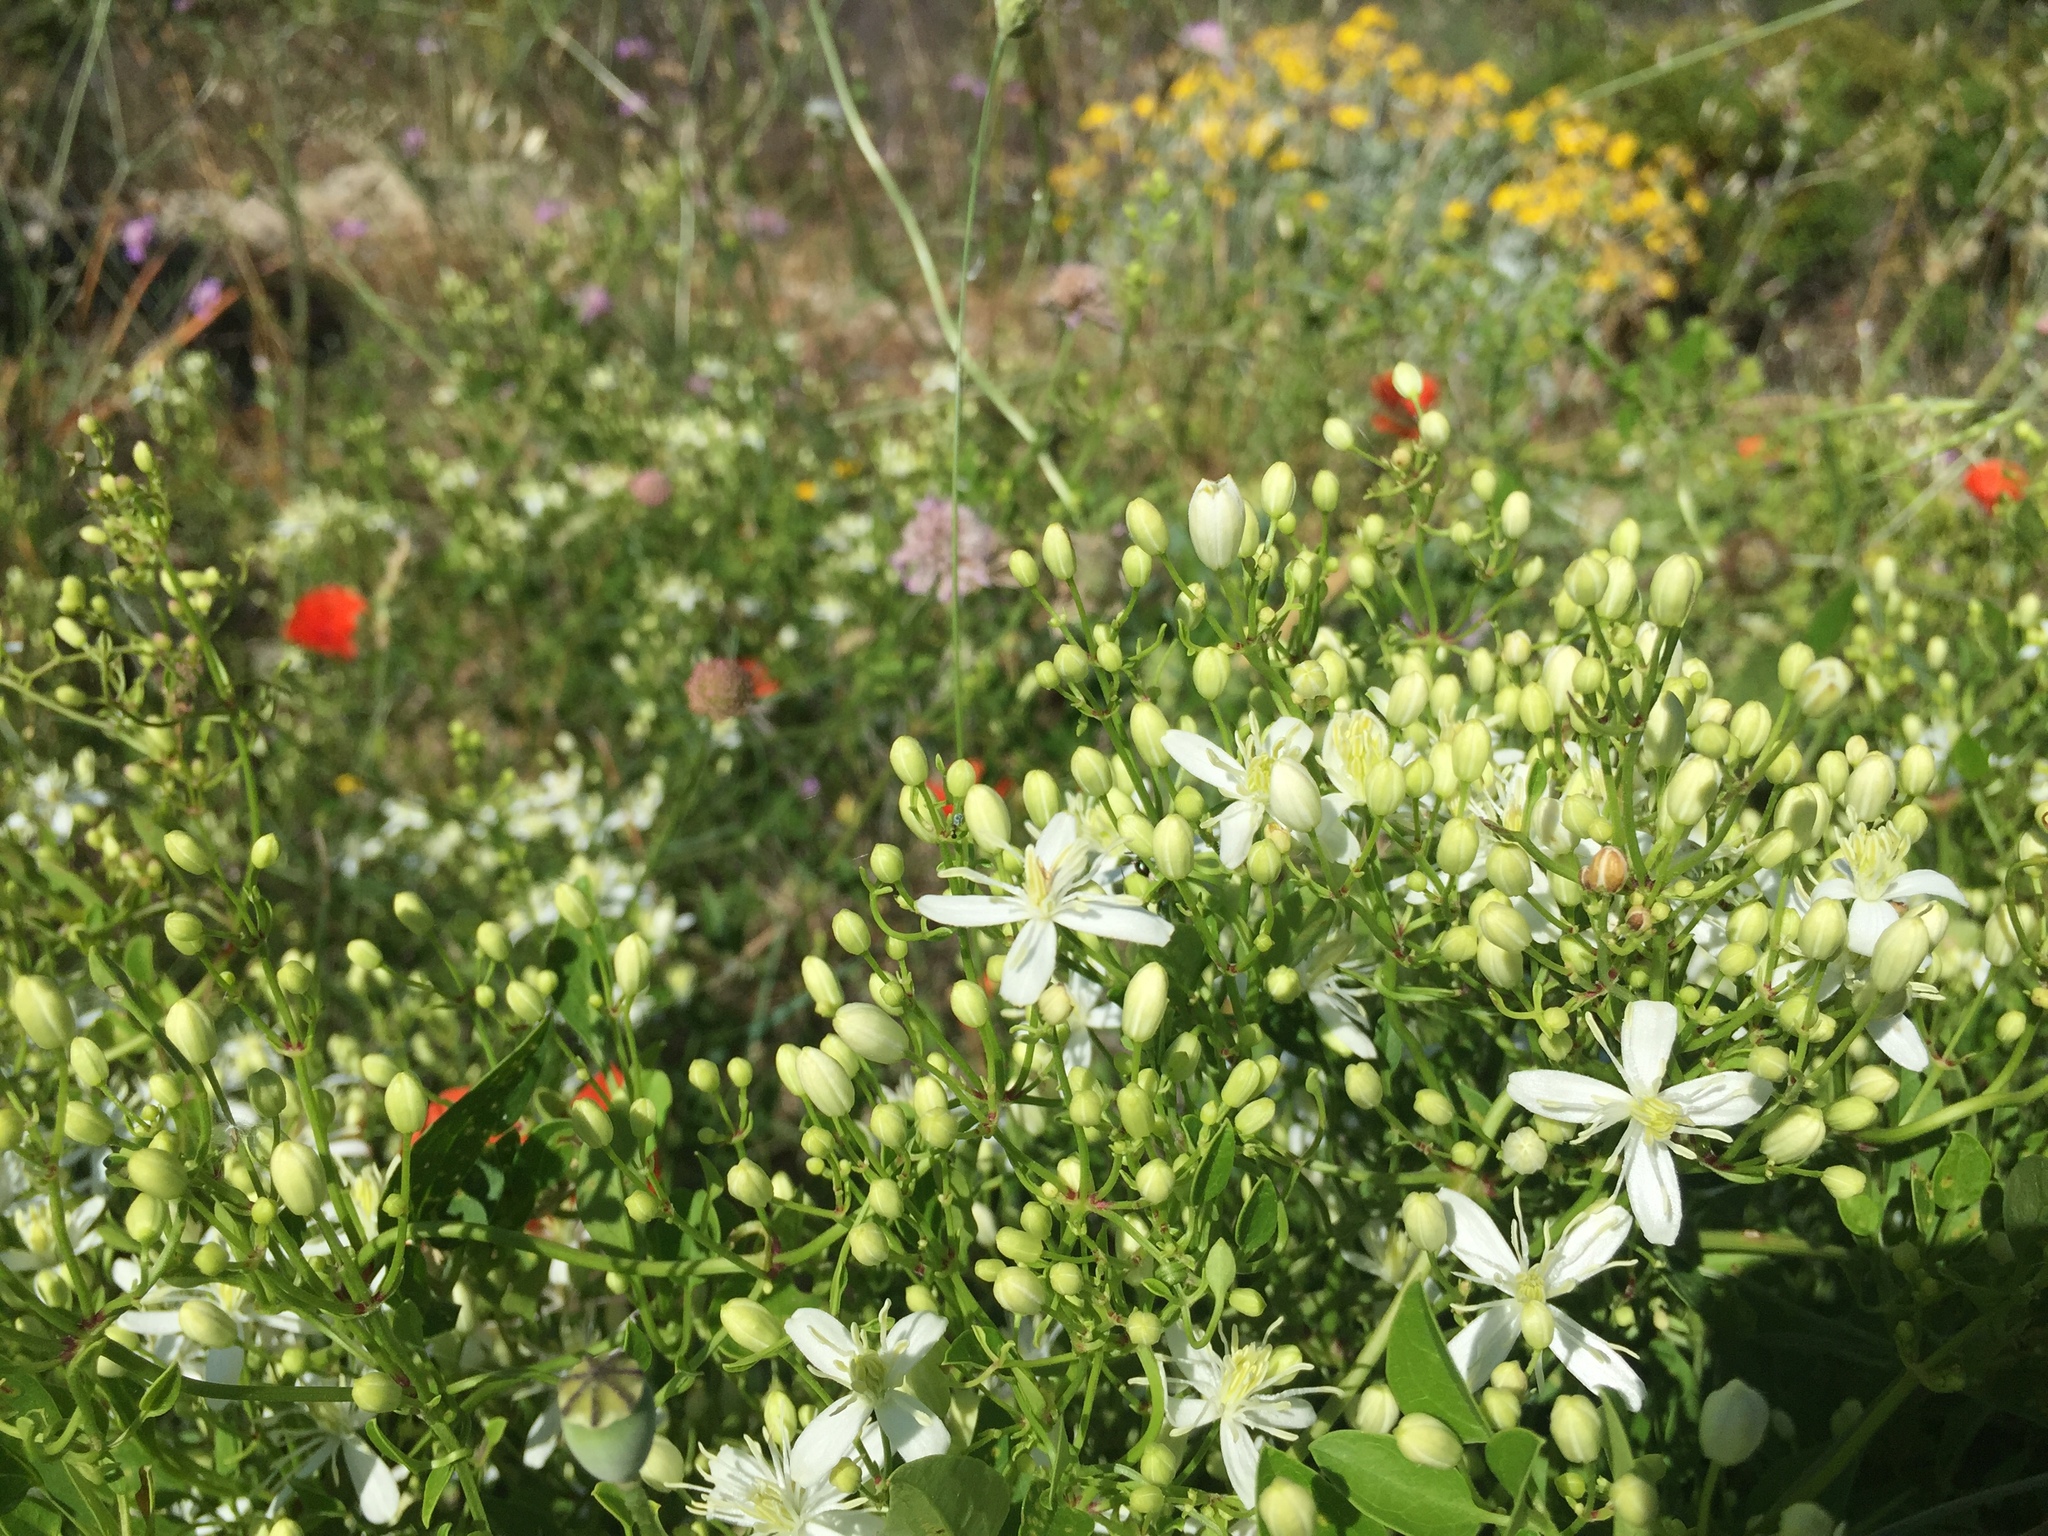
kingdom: Plantae
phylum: Tracheophyta
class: Magnoliopsida
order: Ranunculales
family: Ranunculaceae
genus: Clematis
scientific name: Clematis flammula
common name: Virgin's-bower
